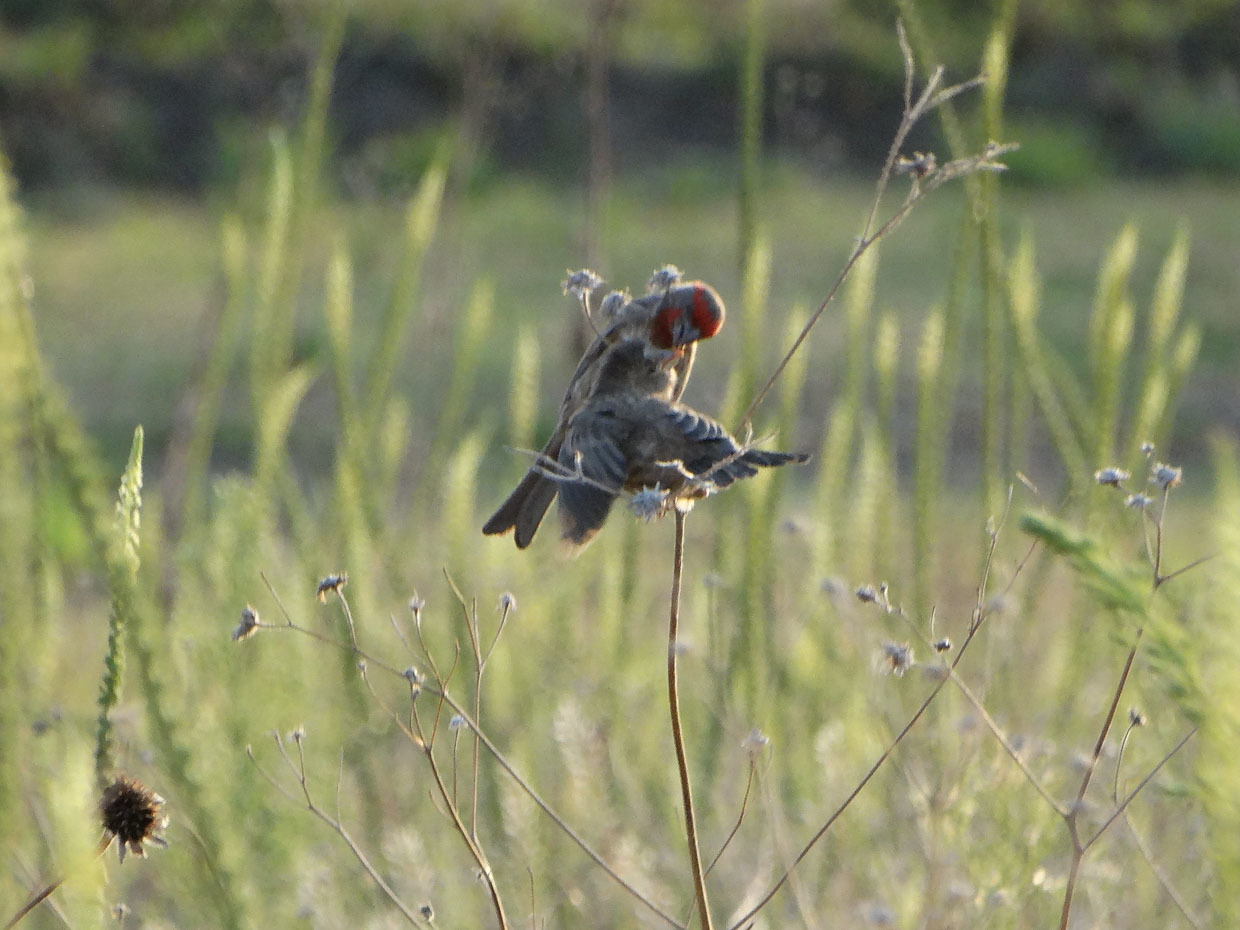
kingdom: Animalia
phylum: Chordata
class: Aves
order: Passeriformes
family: Fringillidae
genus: Haemorhous
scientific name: Haemorhous mexicanus
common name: House finch
